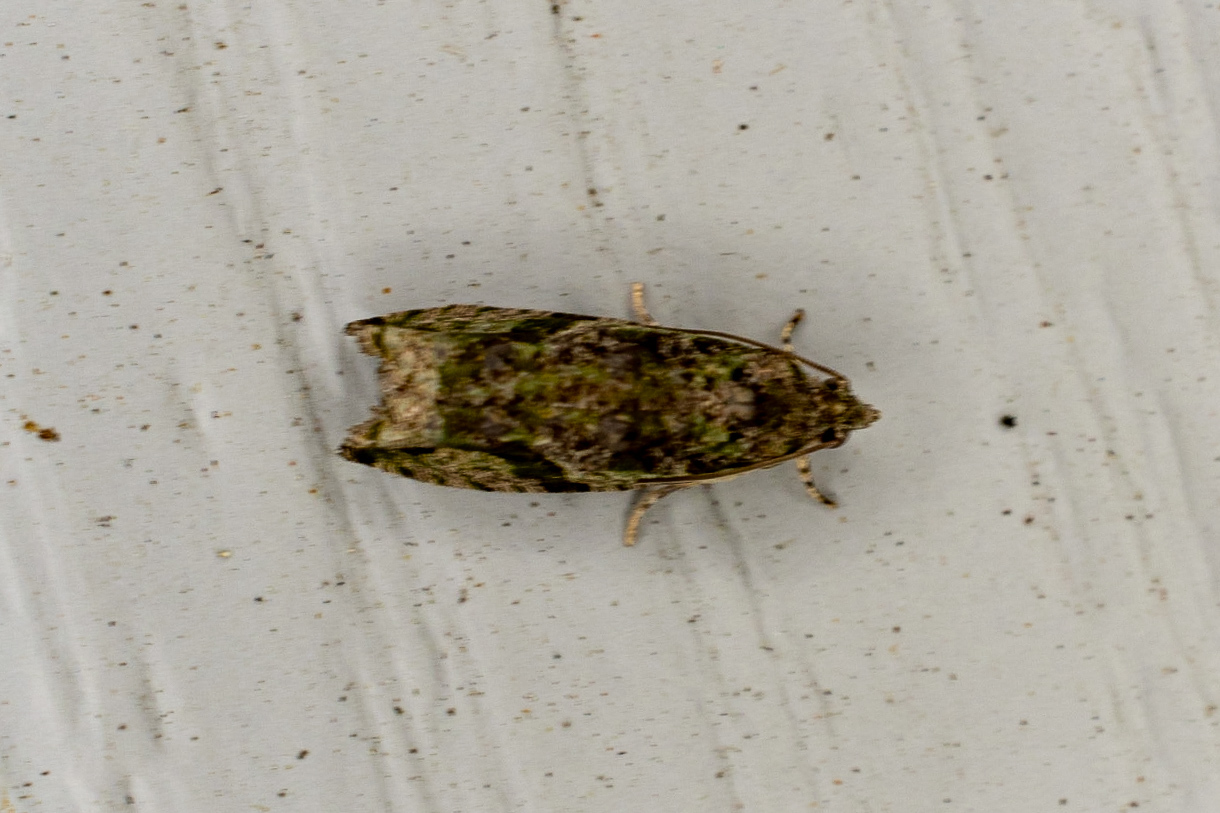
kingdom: Animalia
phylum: Arthropoda
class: Insecta
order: Lepidoptera
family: Tortricidae
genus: Proteoteras
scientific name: Proteoteras aesculana
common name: Maple twig borer moth
